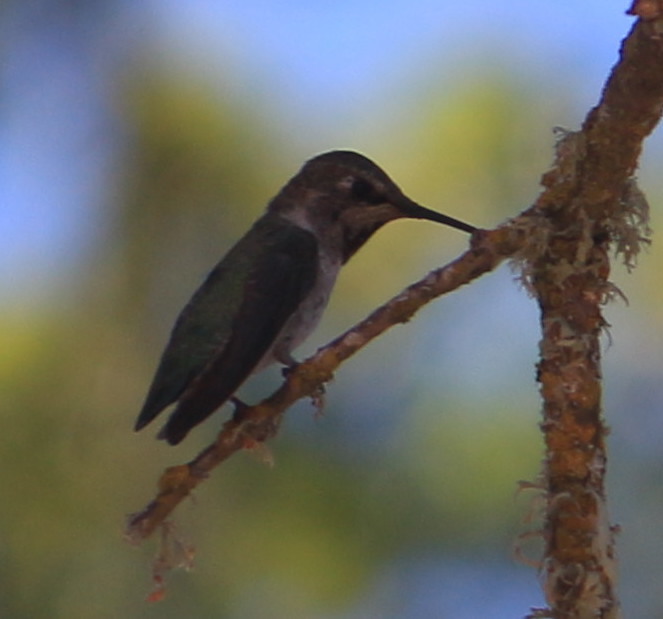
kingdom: Animalia
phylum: Chordata
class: Aves
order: Apodiformes
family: Trochilidae
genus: Calypte
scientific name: Calypte anna
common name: Anna's hummingbird
